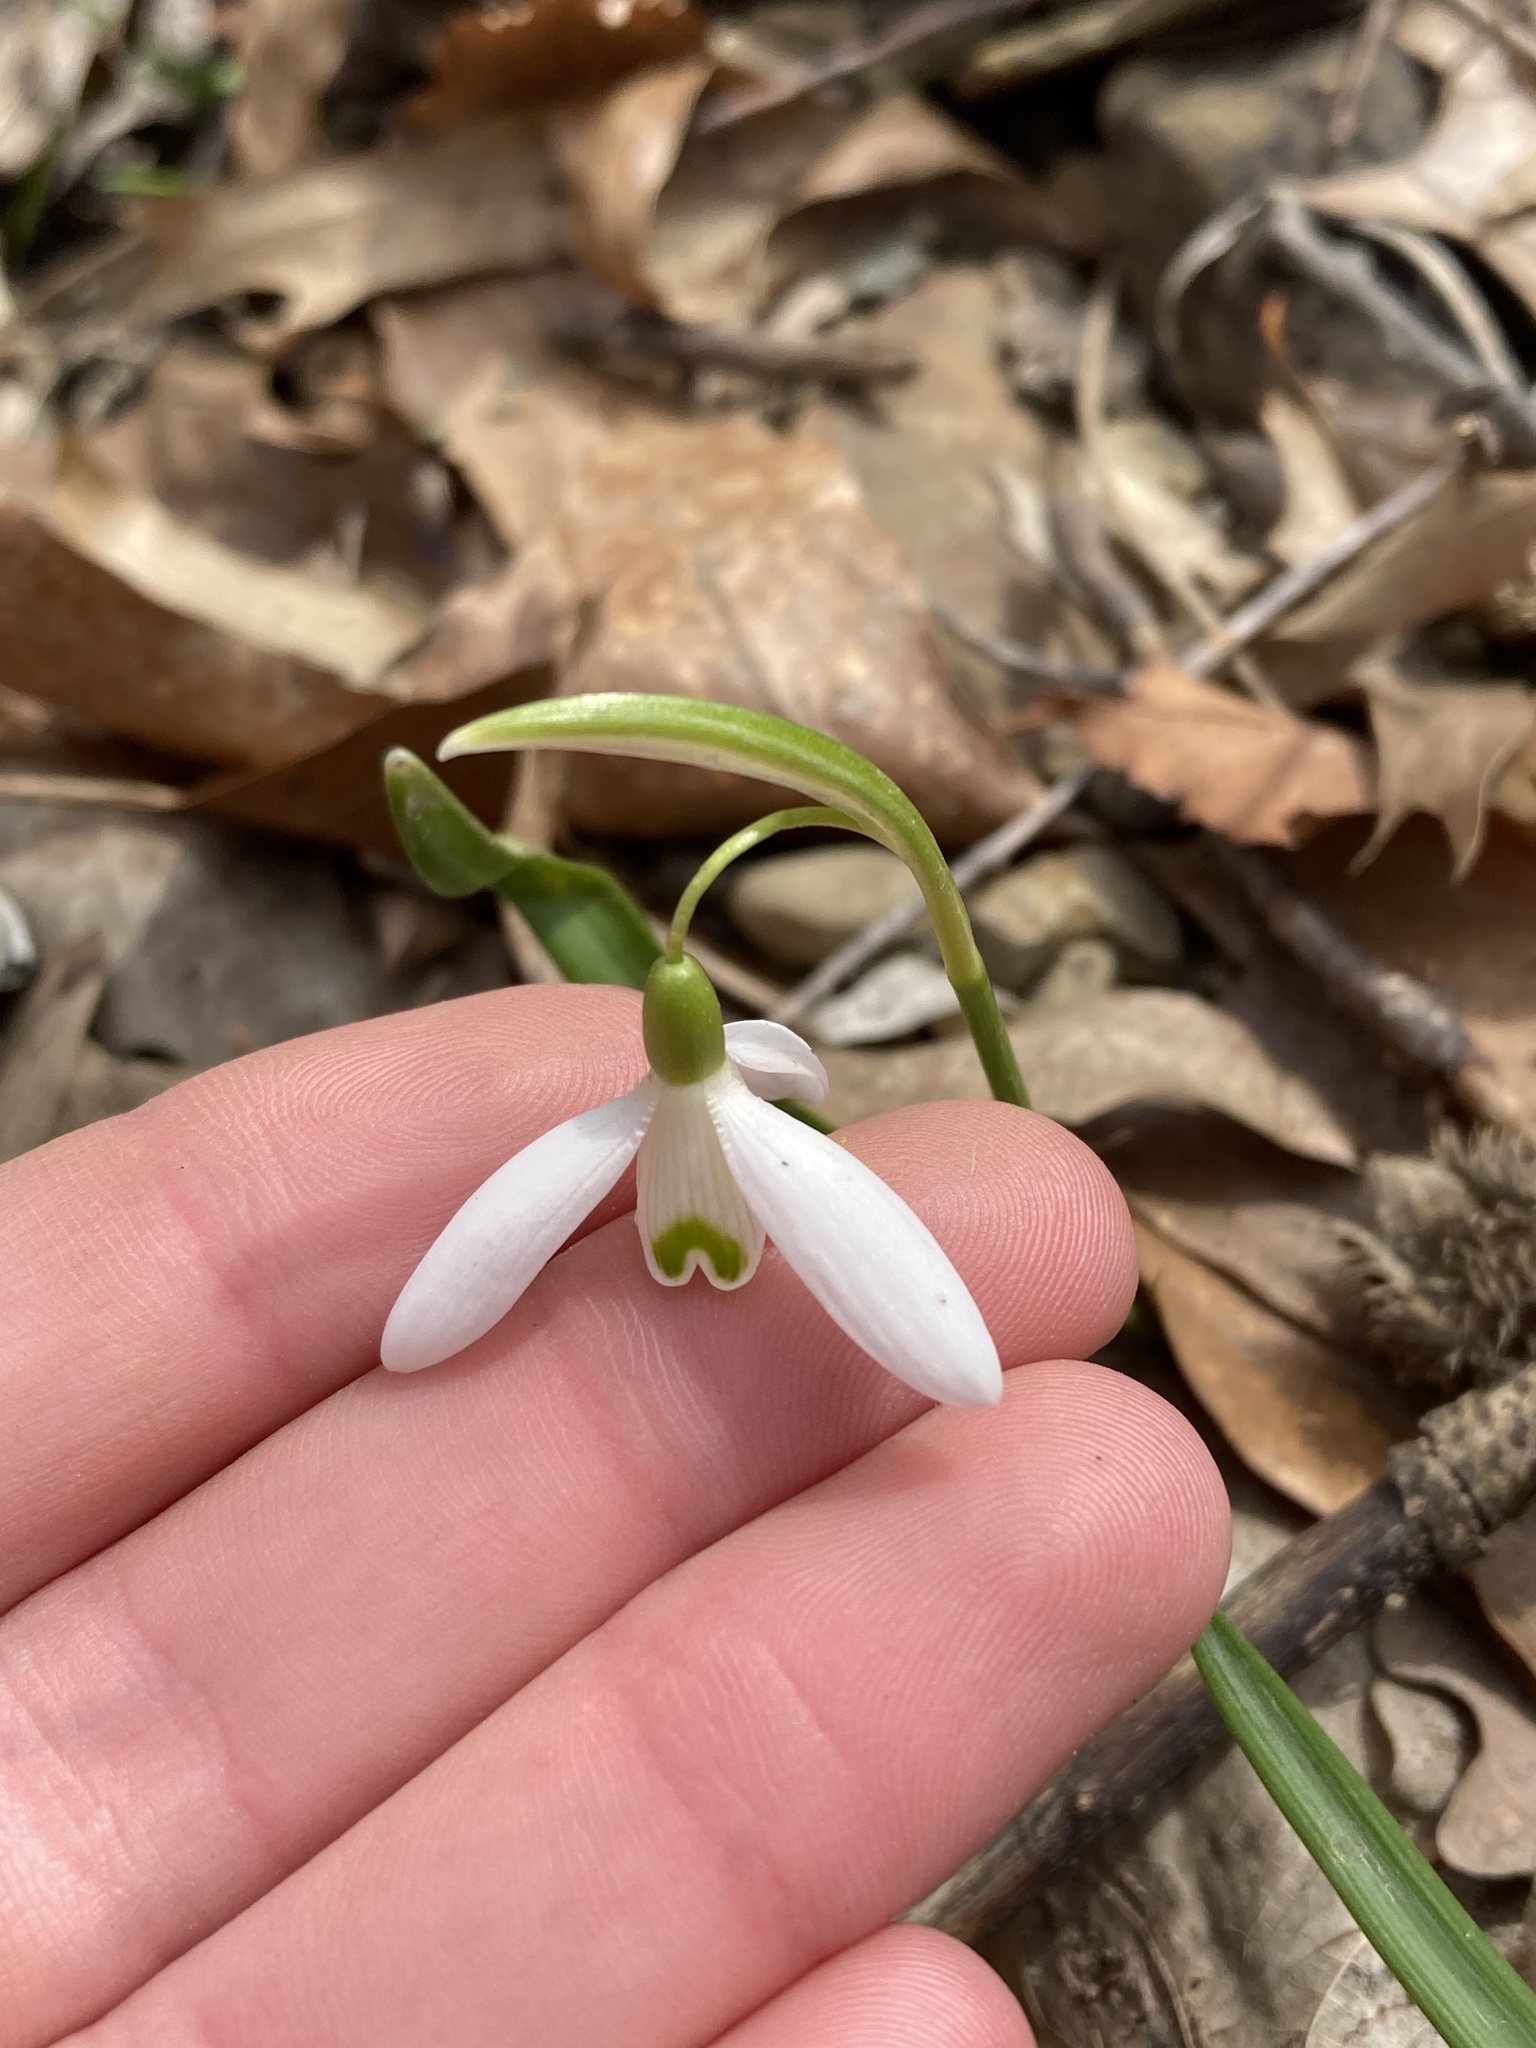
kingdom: Plantae
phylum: Tracheophyta
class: Liliopsida
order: Asparagales
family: Amaryllidaceae
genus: Galanthus
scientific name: Galanthus nivalis
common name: Snowdrop
